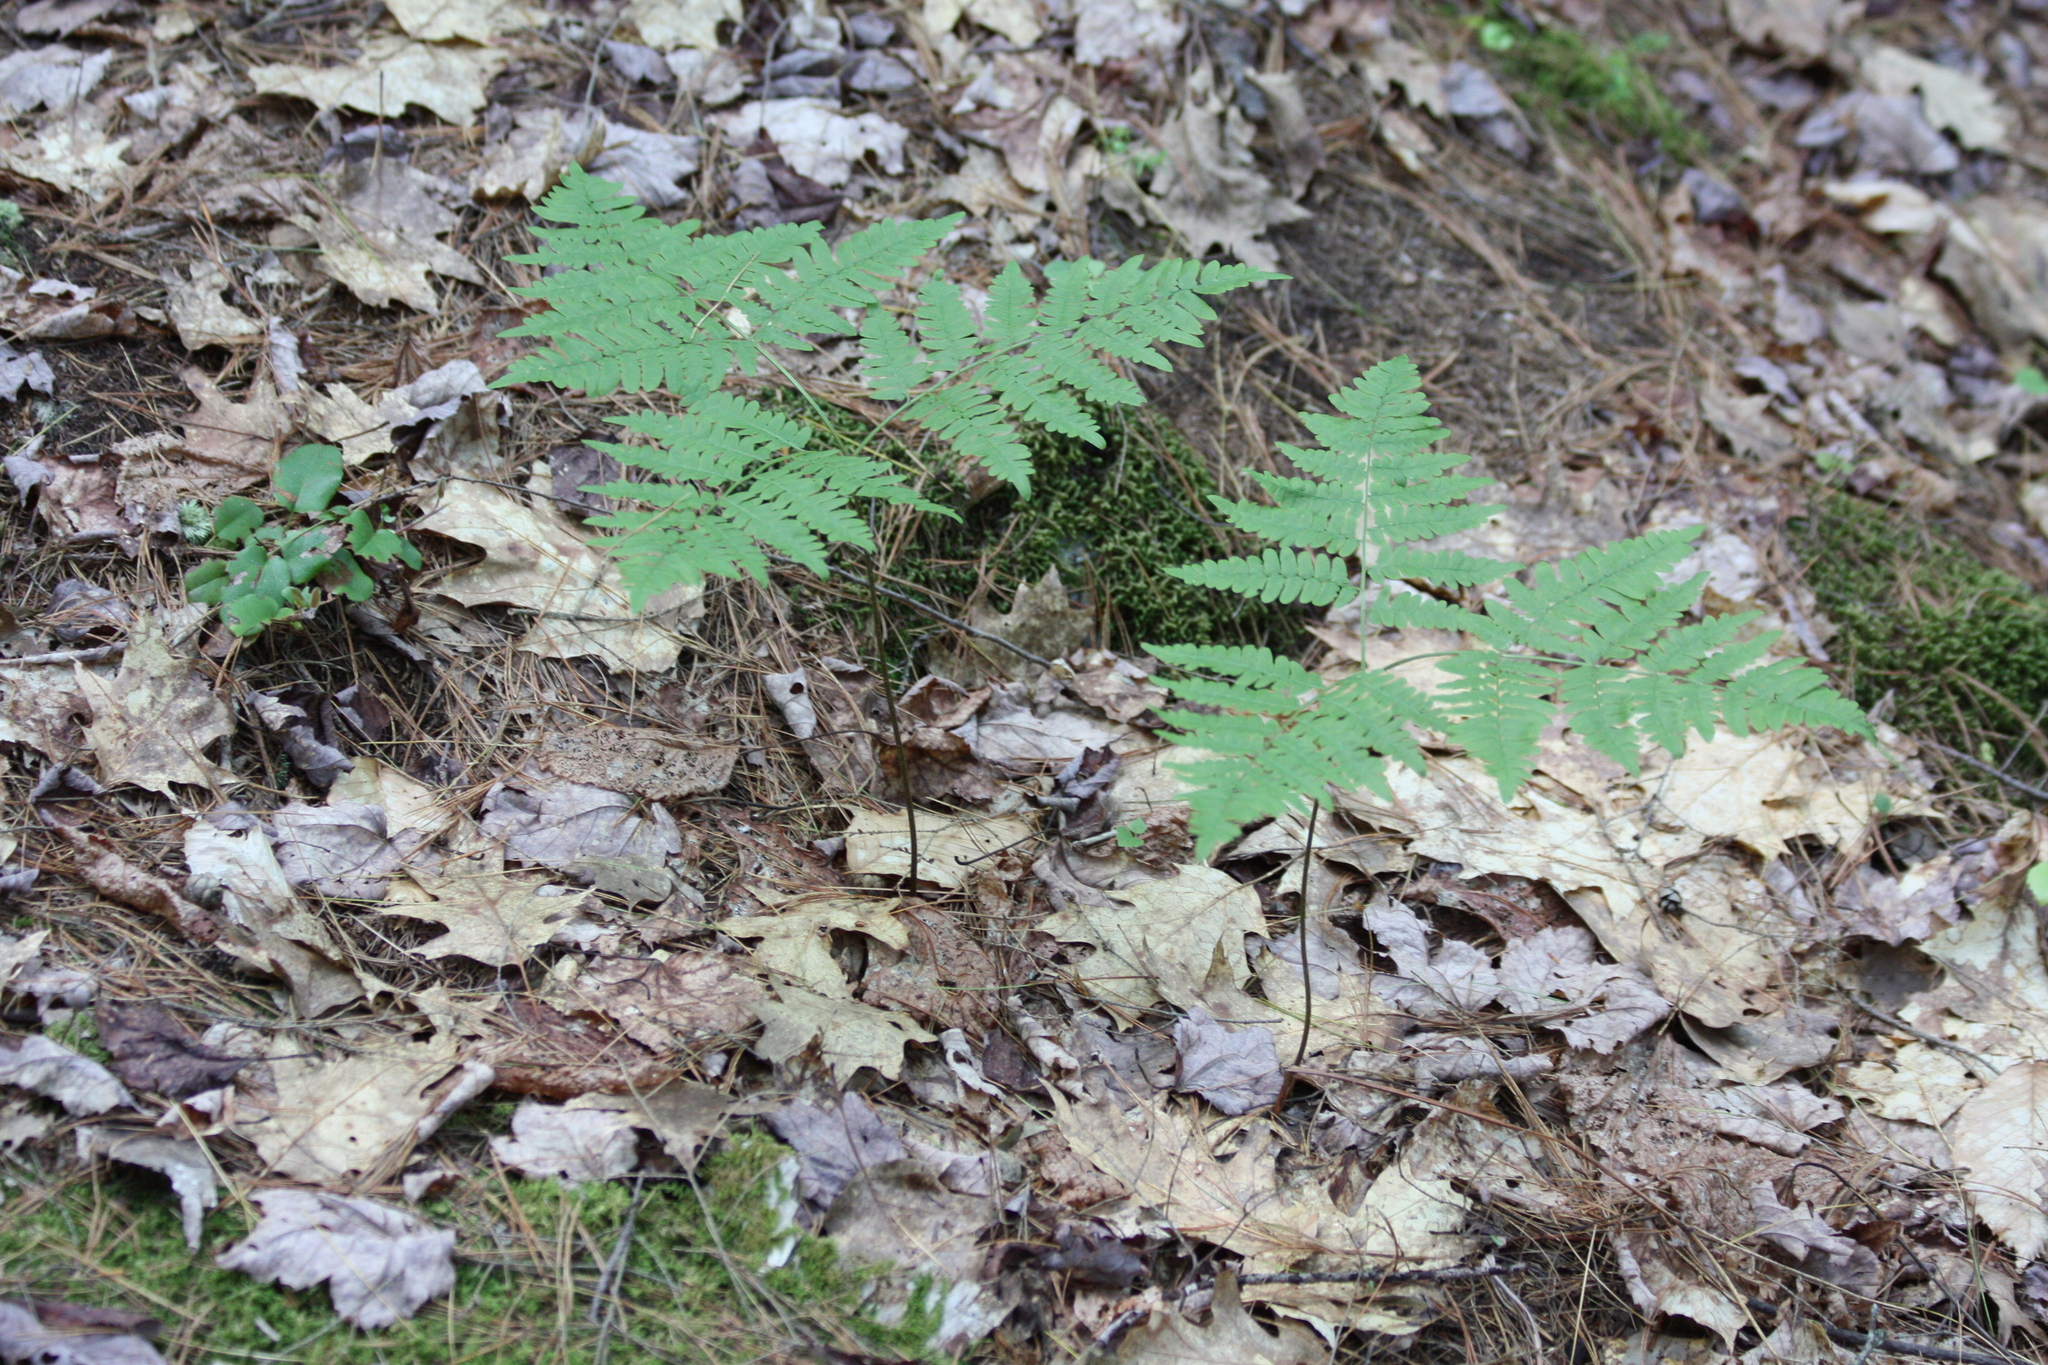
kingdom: Plantae
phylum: Tracheophyta
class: Polypodiopsida
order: Polypodiales
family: Dennstaedtiaceae
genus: Pteridium
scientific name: Pteridium aquilinum
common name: Bracken
